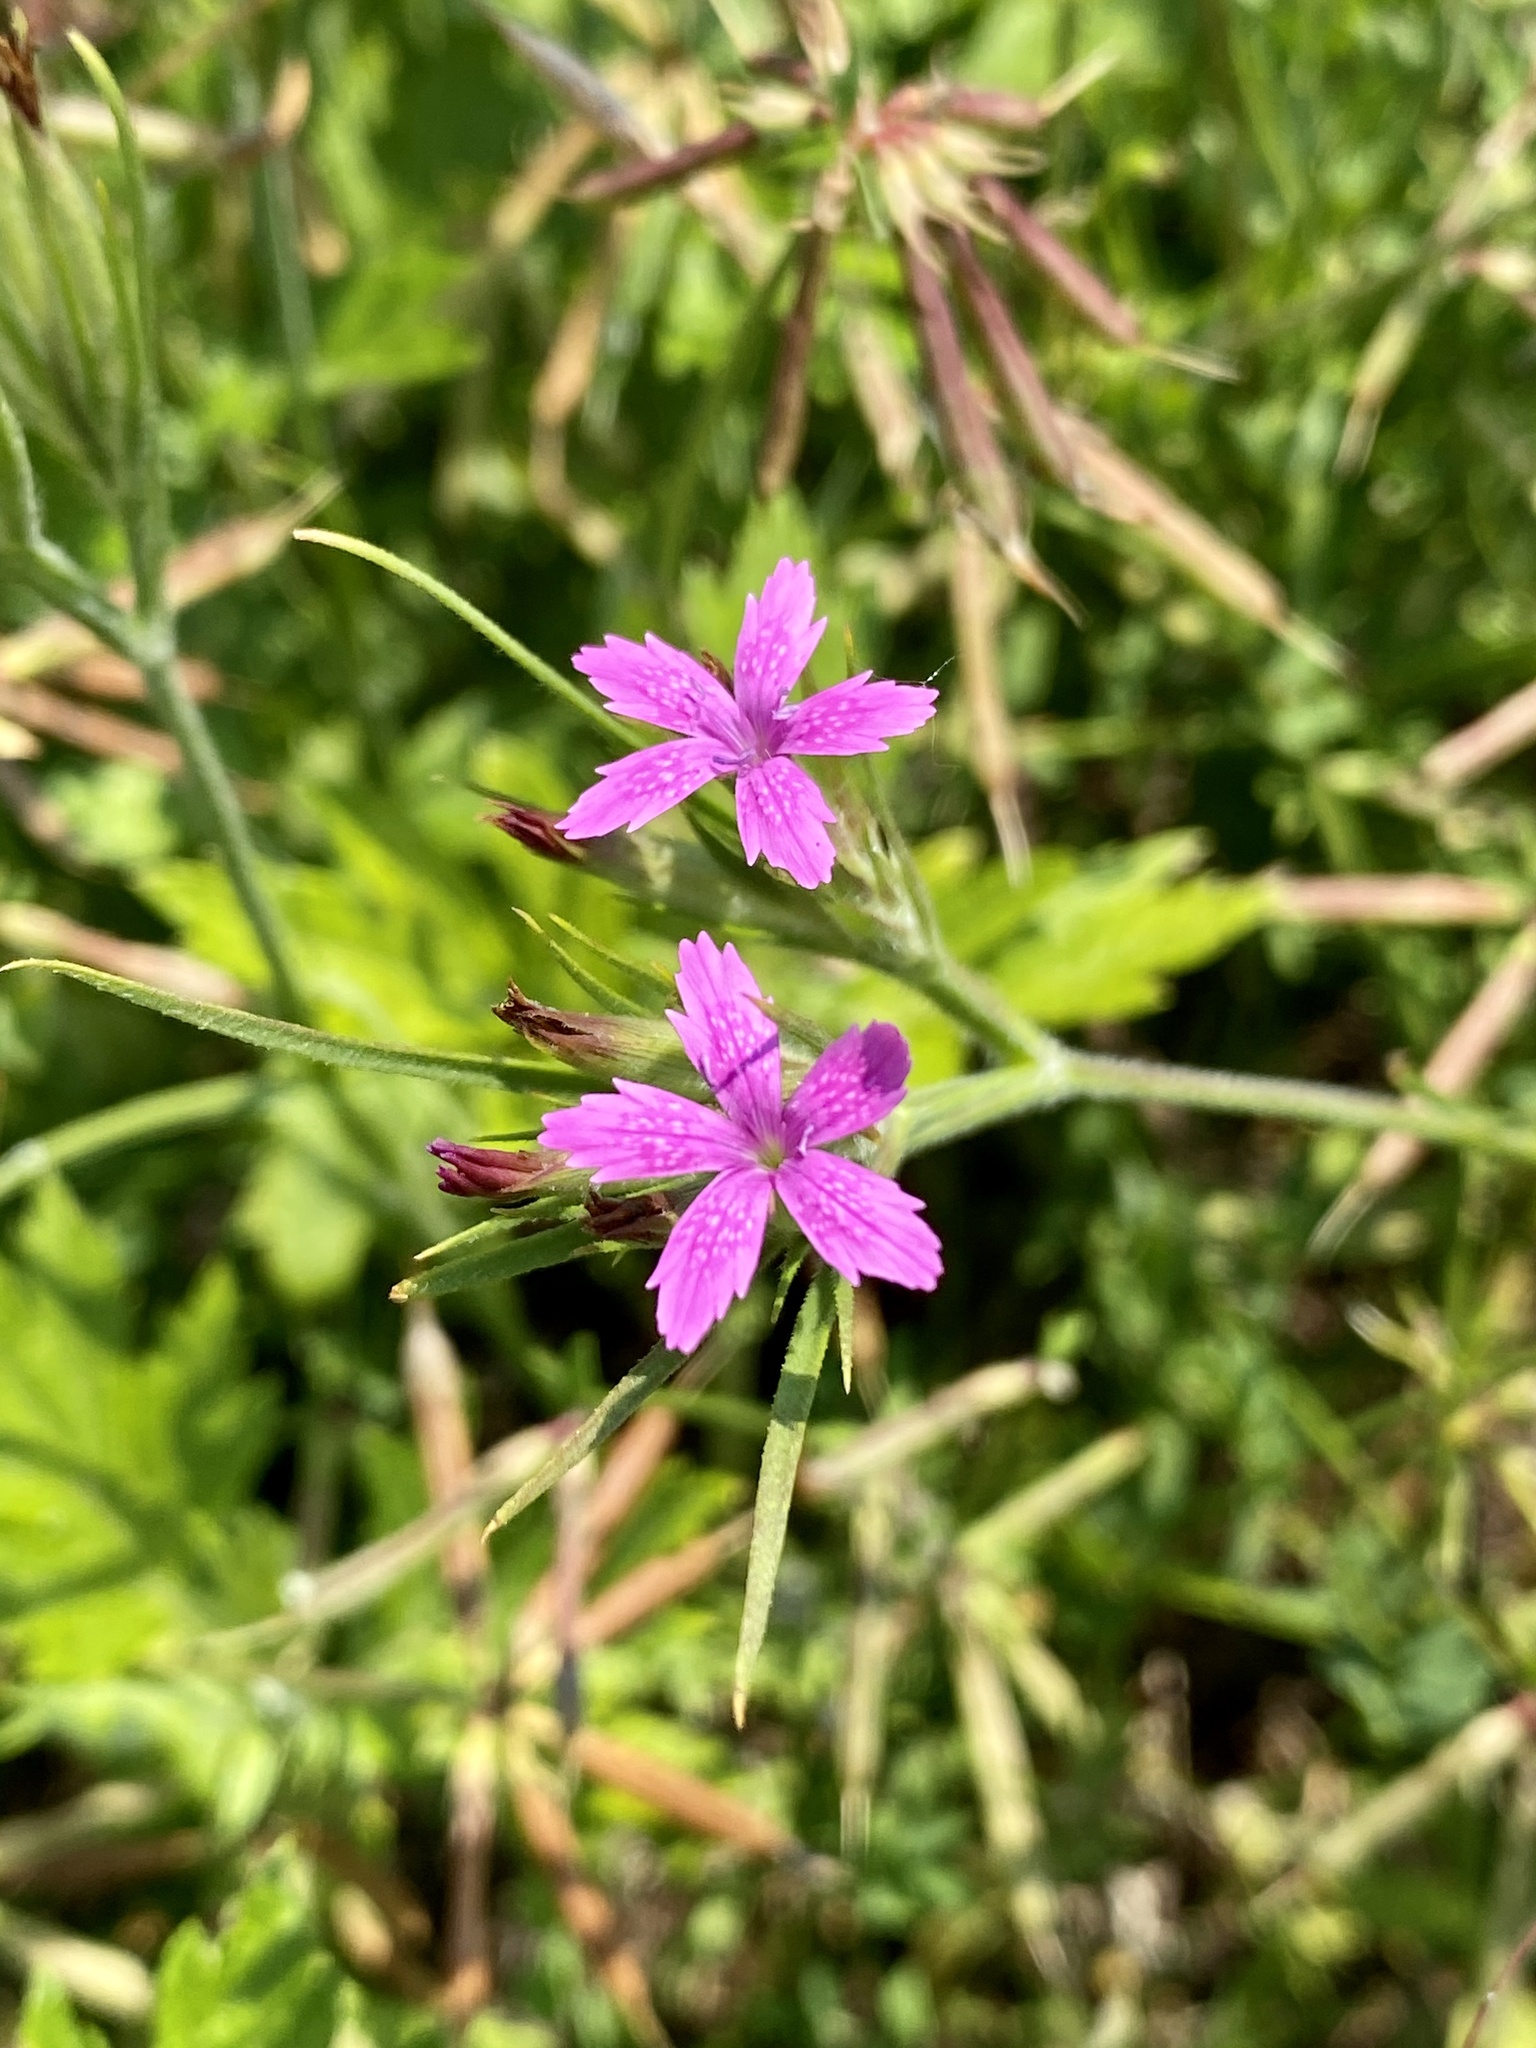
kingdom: Plantae
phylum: Tracheophyta
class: Magnoliopsida
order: Caryophyllales
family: Caryophyllaceae
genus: Dianthus
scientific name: Dianthus armeria
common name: Deptford pink
